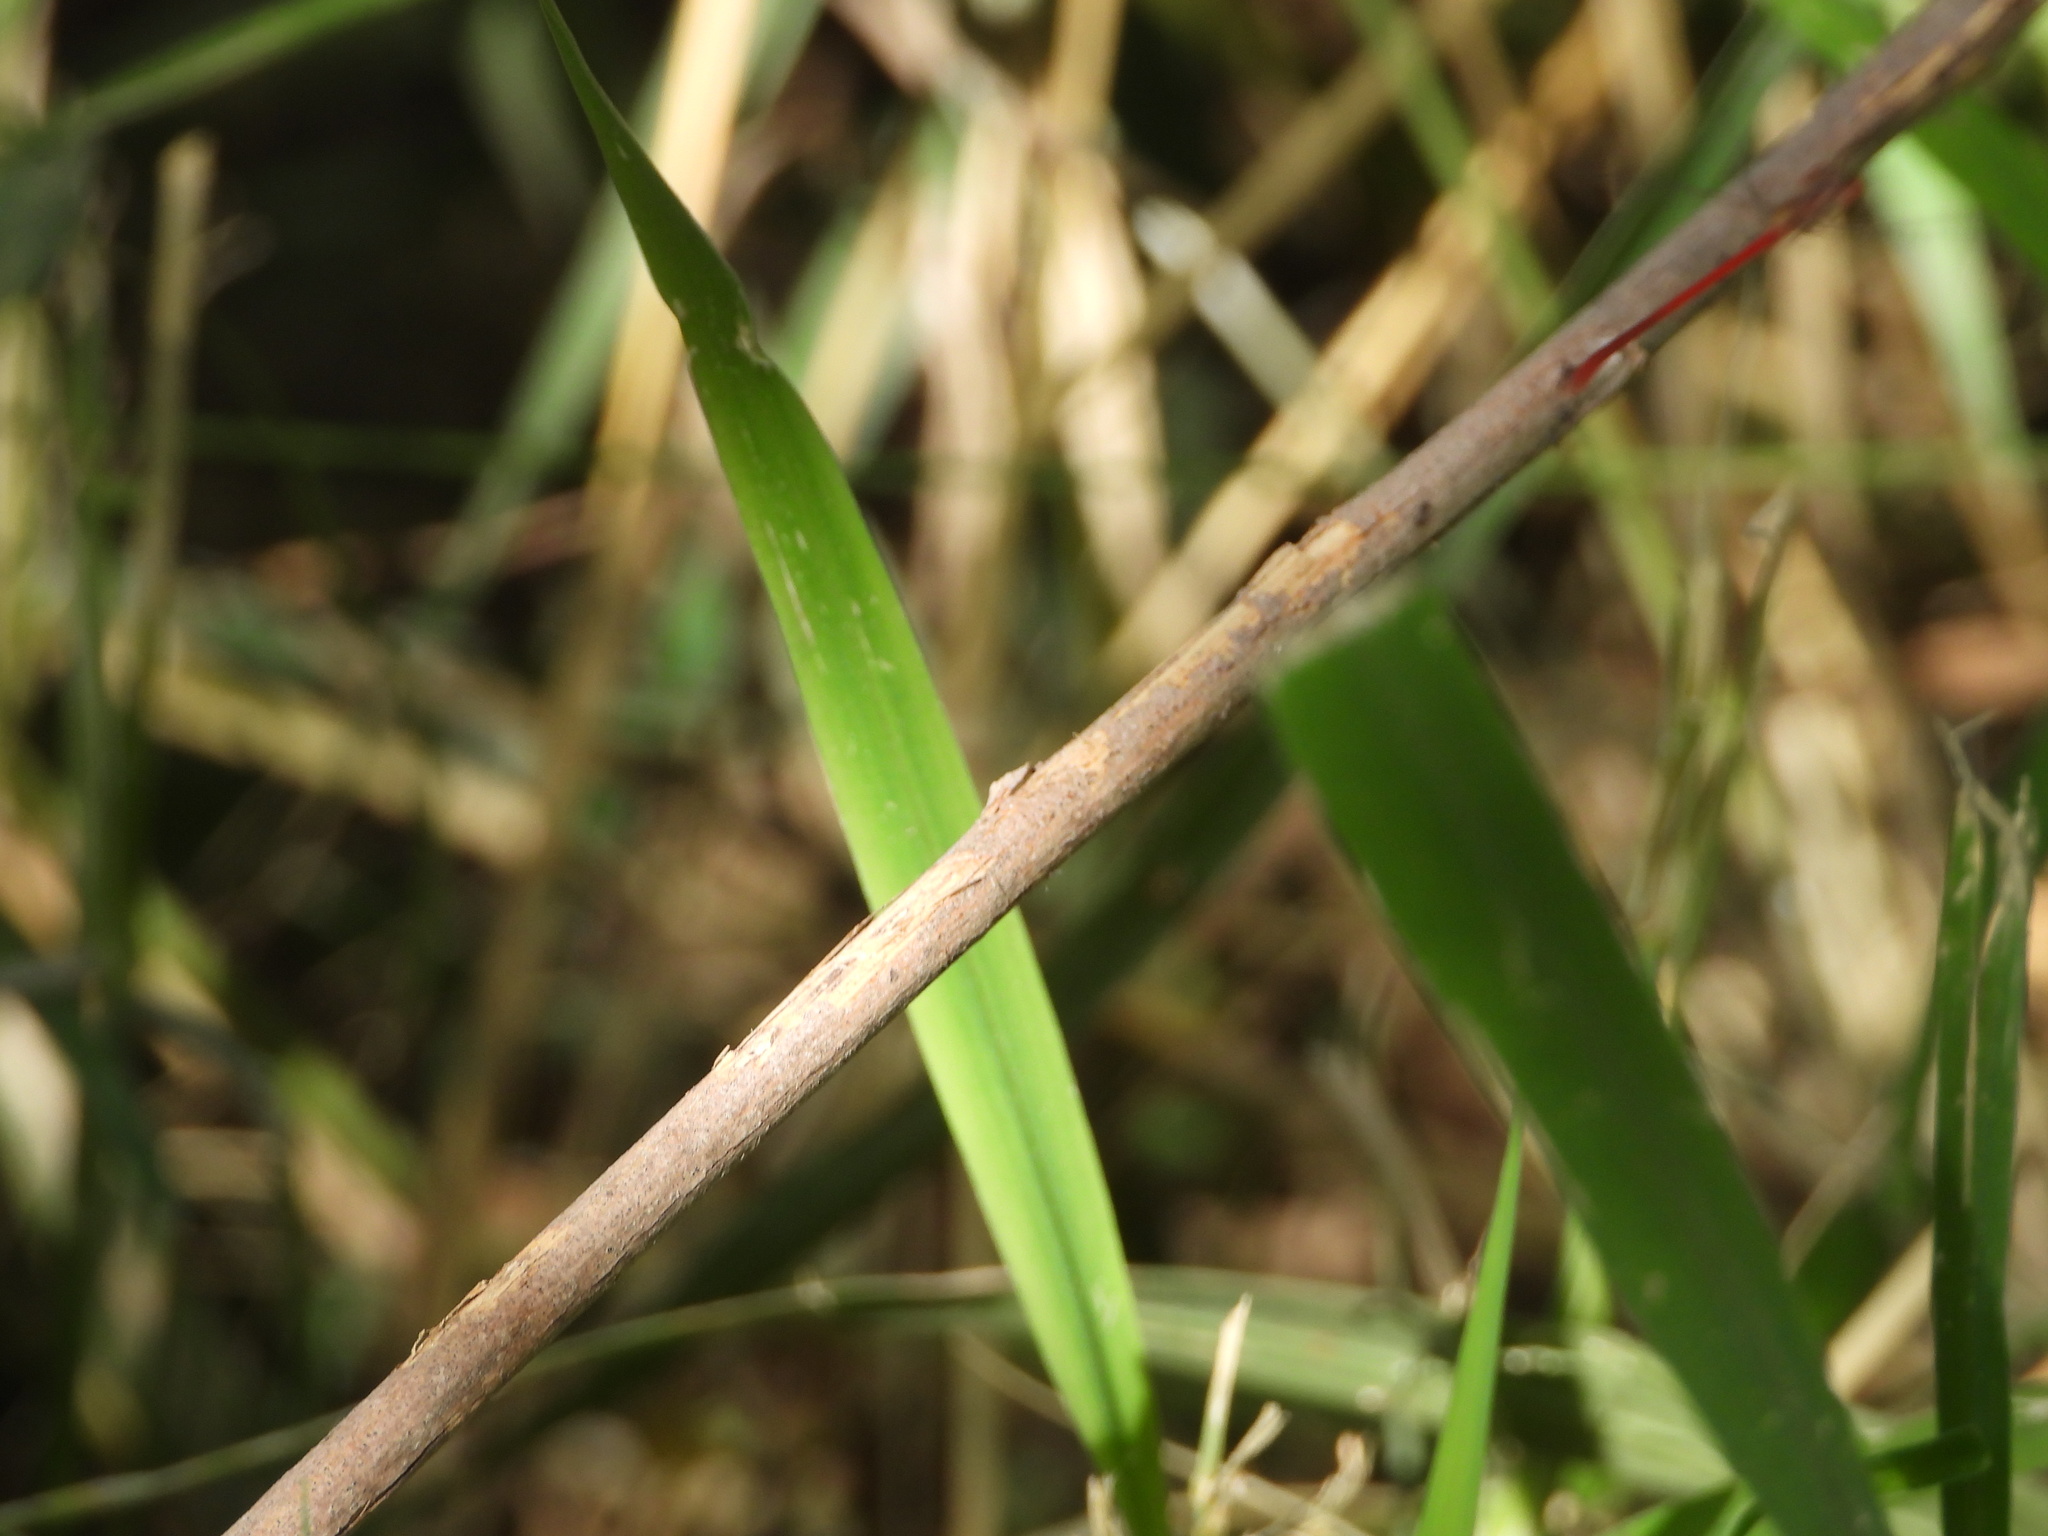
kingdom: Animalia
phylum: Arthropoda
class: Insecta
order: Odonata
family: Coenagrionidae
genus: Telebasis
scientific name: Telebasis salva
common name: Desert firetail
